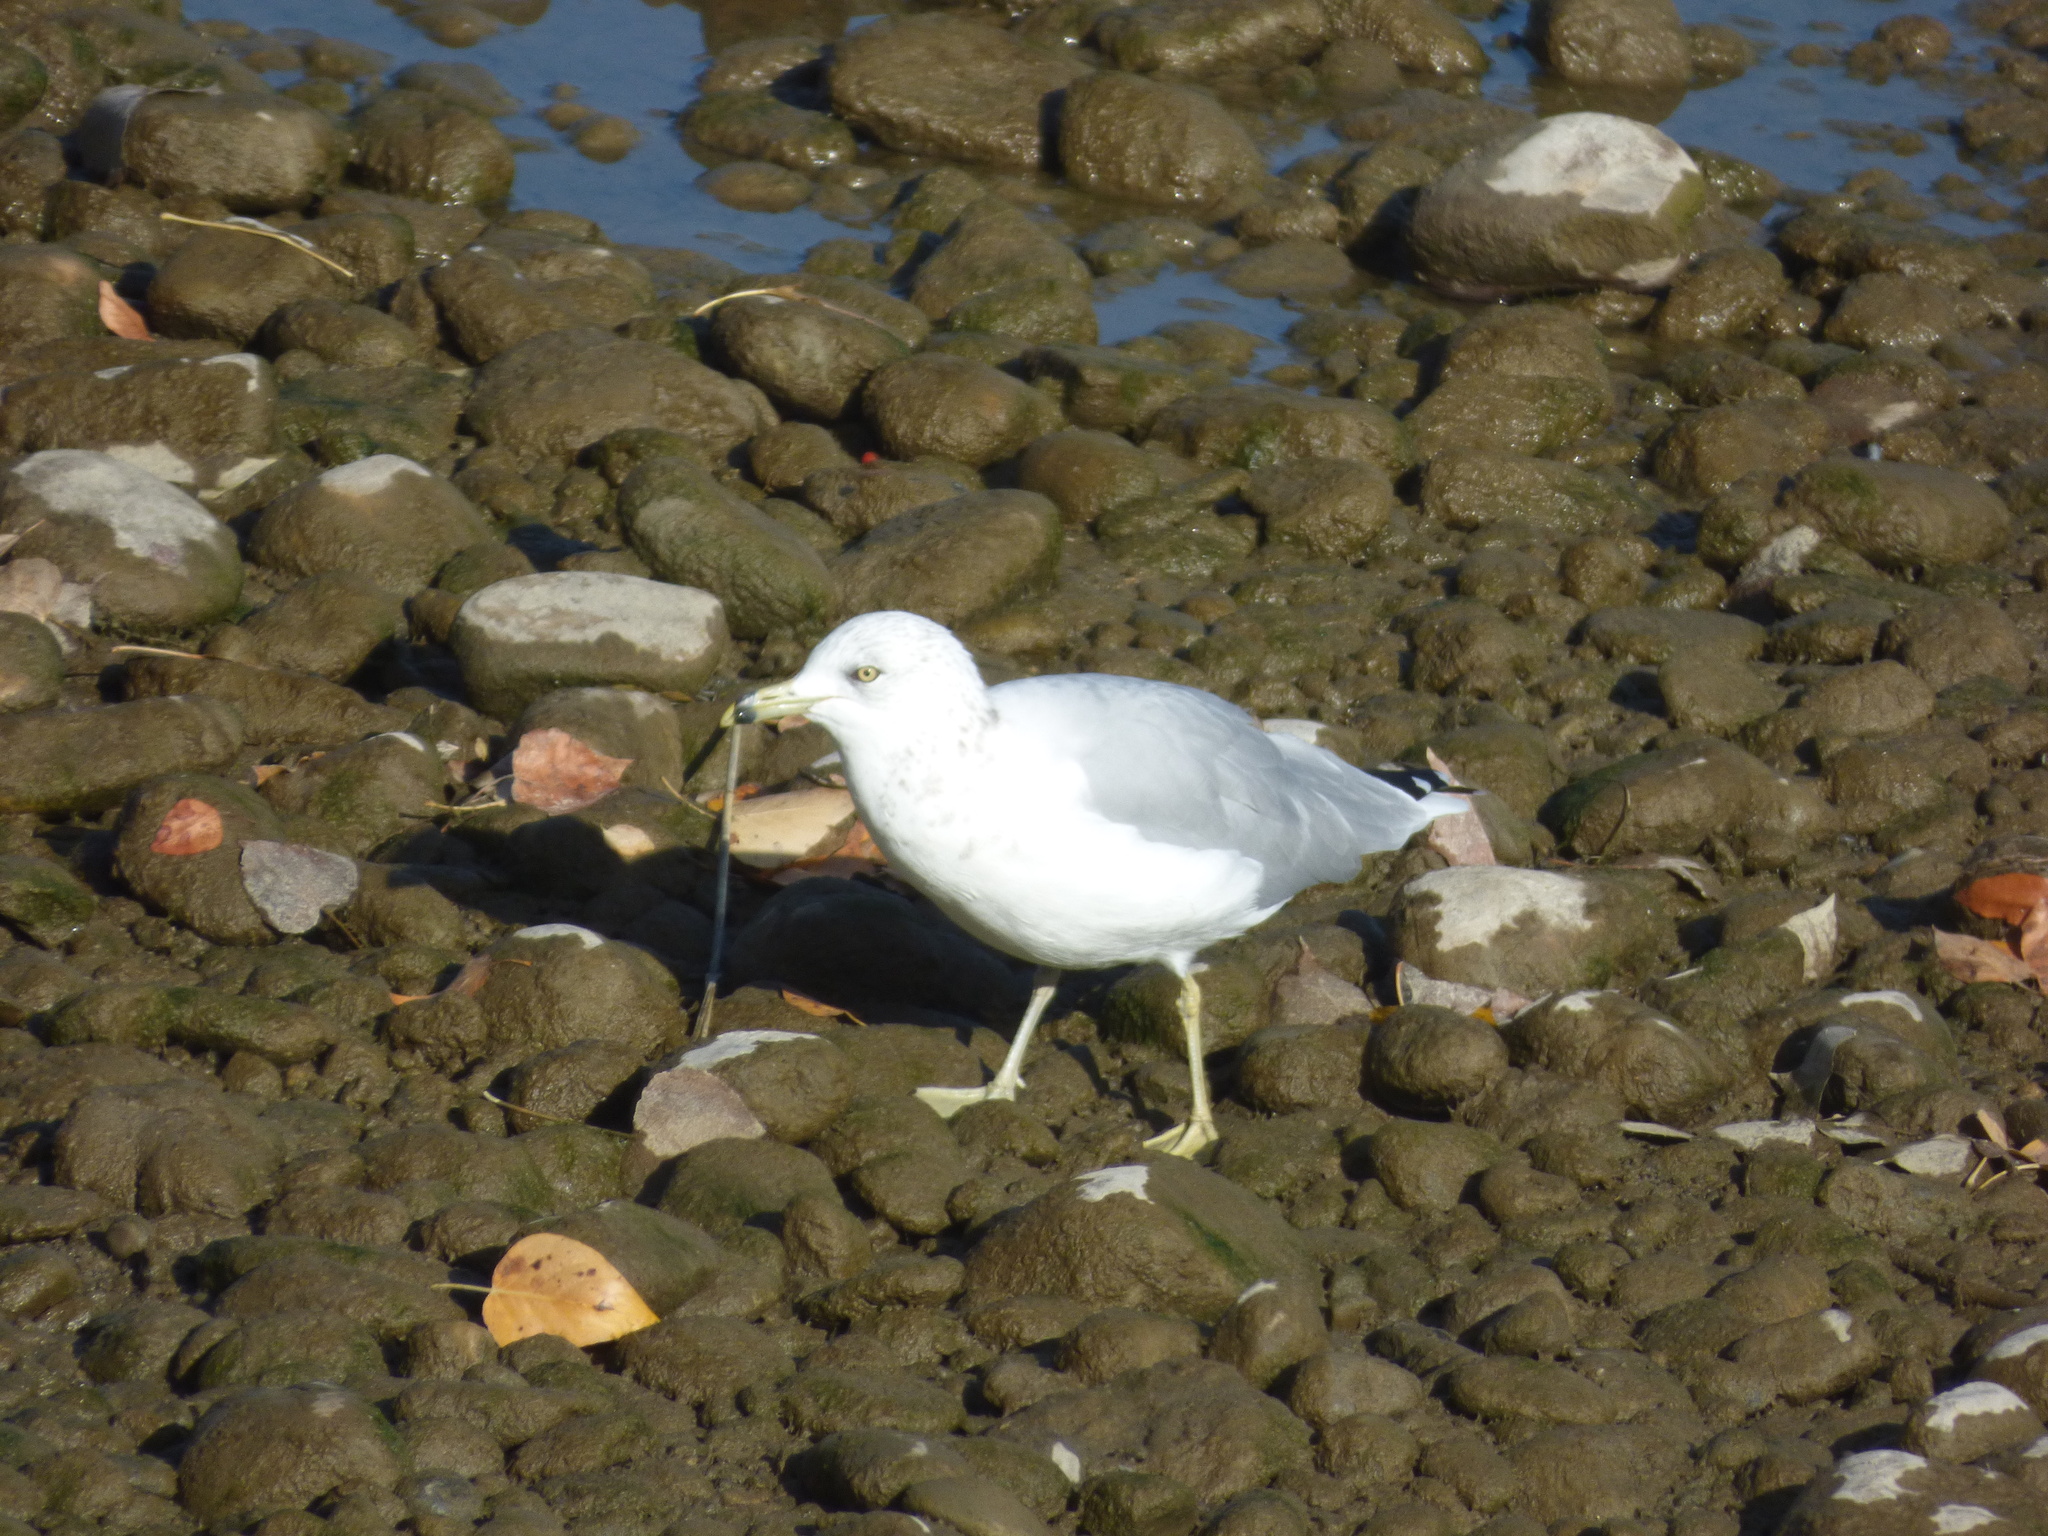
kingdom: Animalia
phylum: Chordata
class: Aves
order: Charadriiformes
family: Laridae
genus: Larus
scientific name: Larus delawarensis
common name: Ring-billed gull
